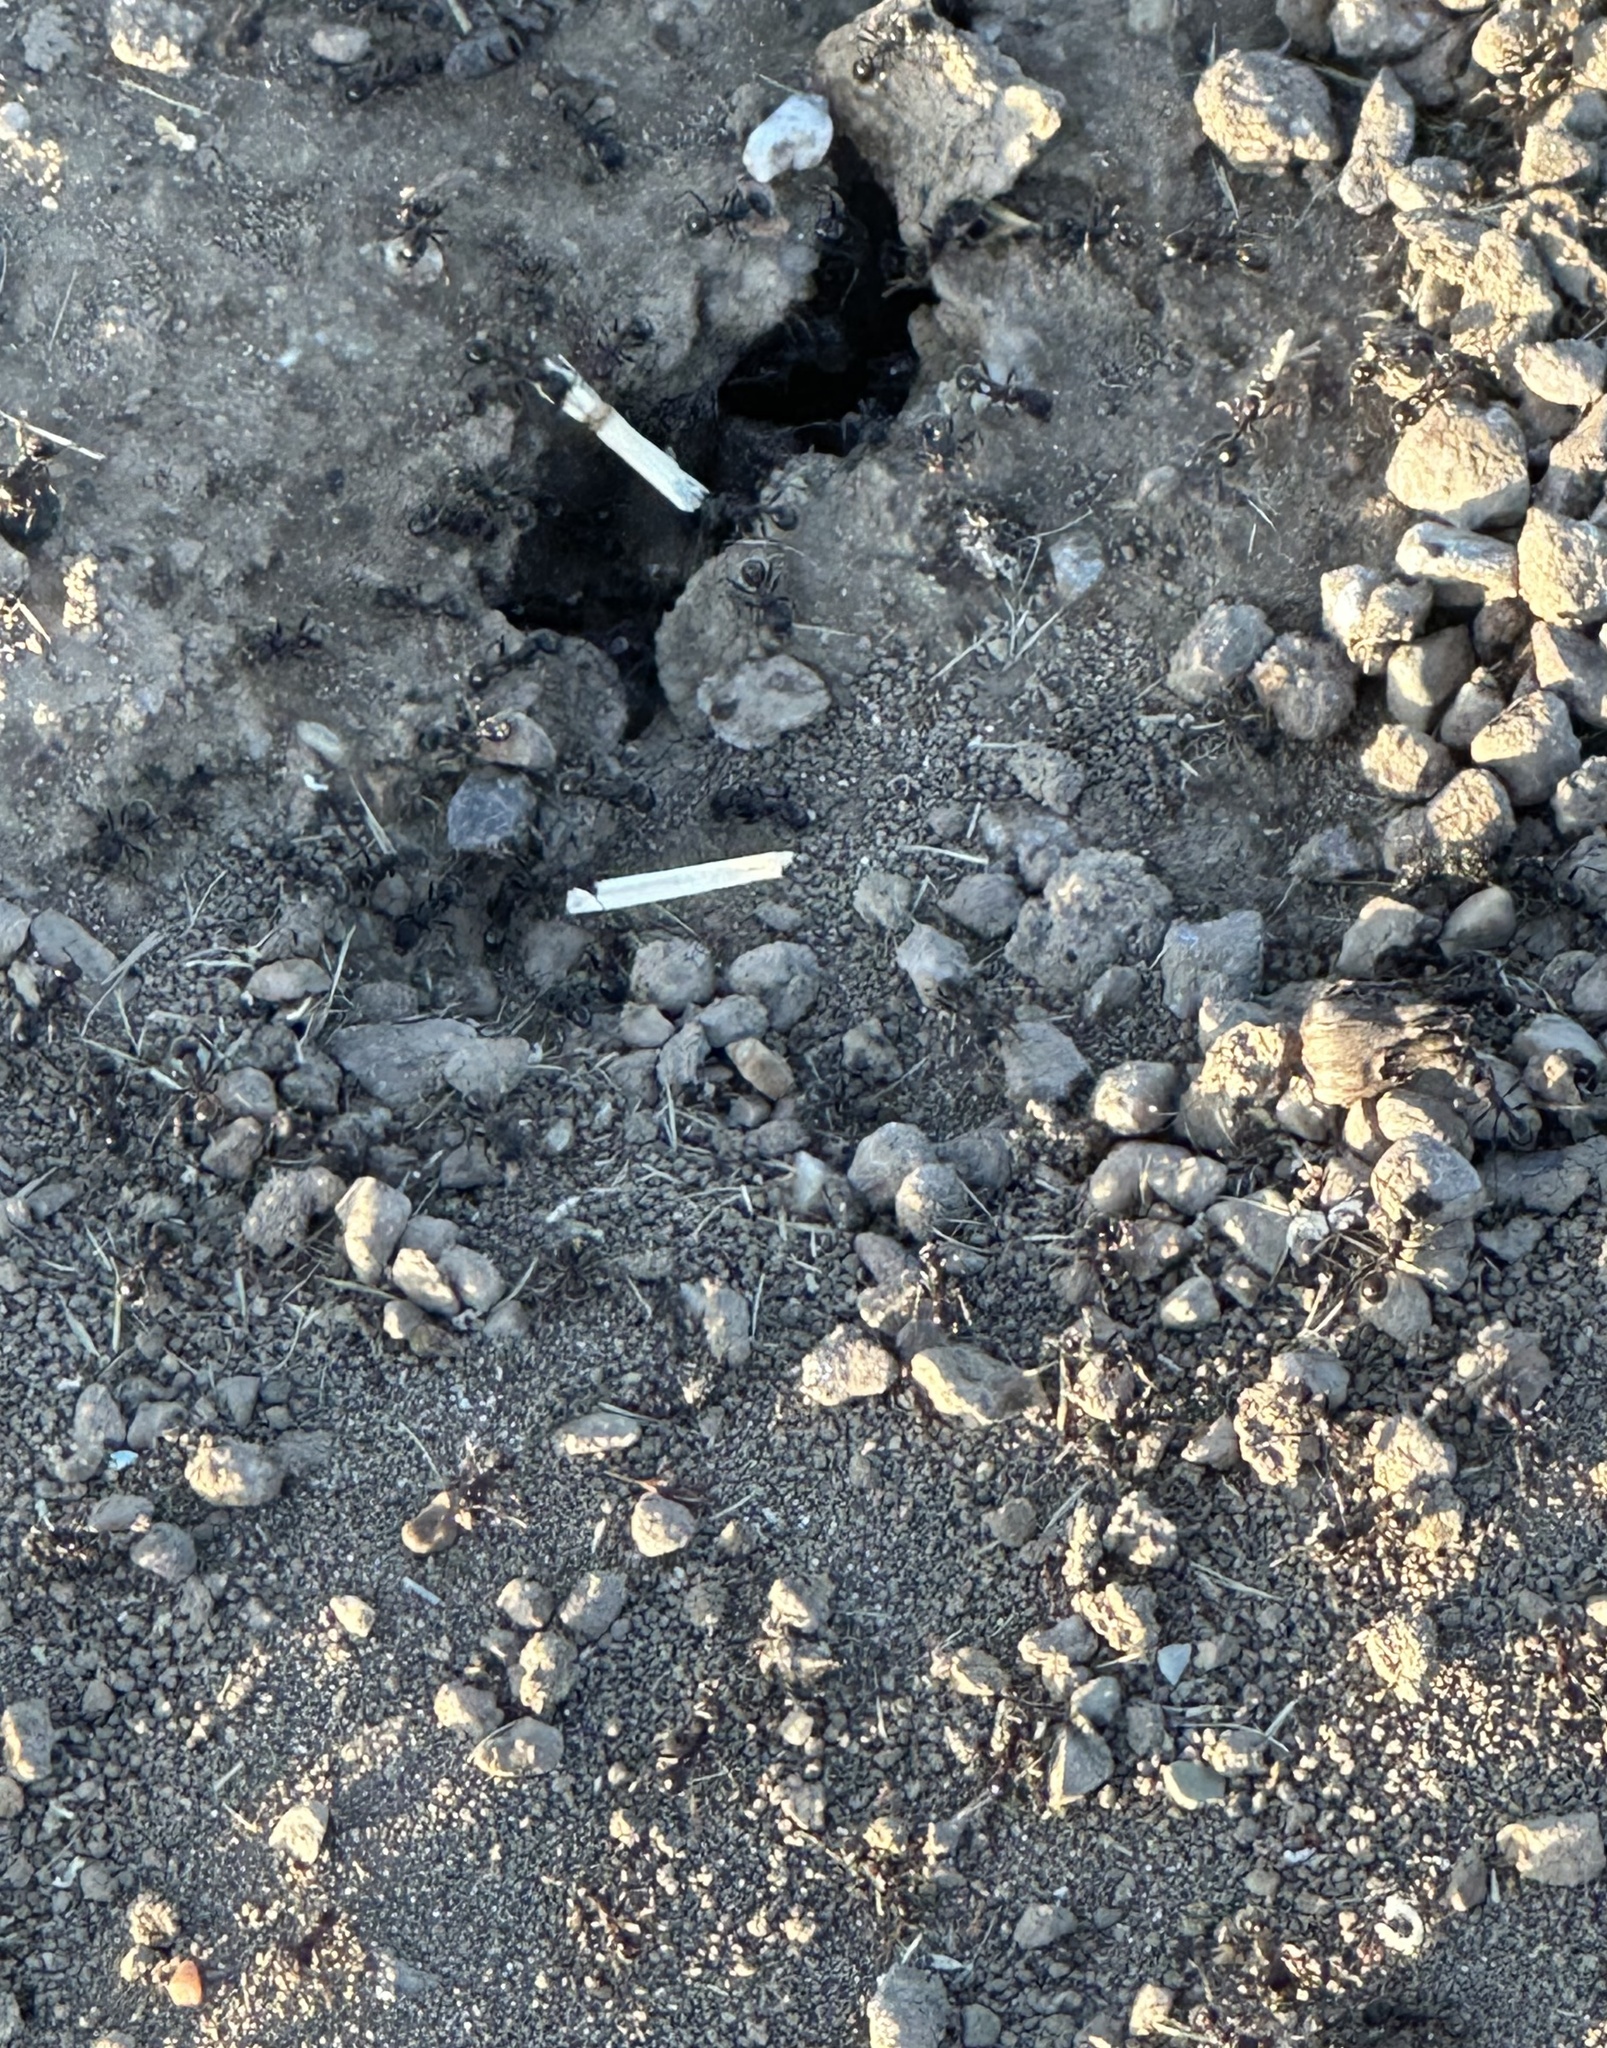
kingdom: Animalia
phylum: Arthropoda
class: Insecta
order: Hymenoptera
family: Formicidae
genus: Veromessor
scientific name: Veromessor andrei
